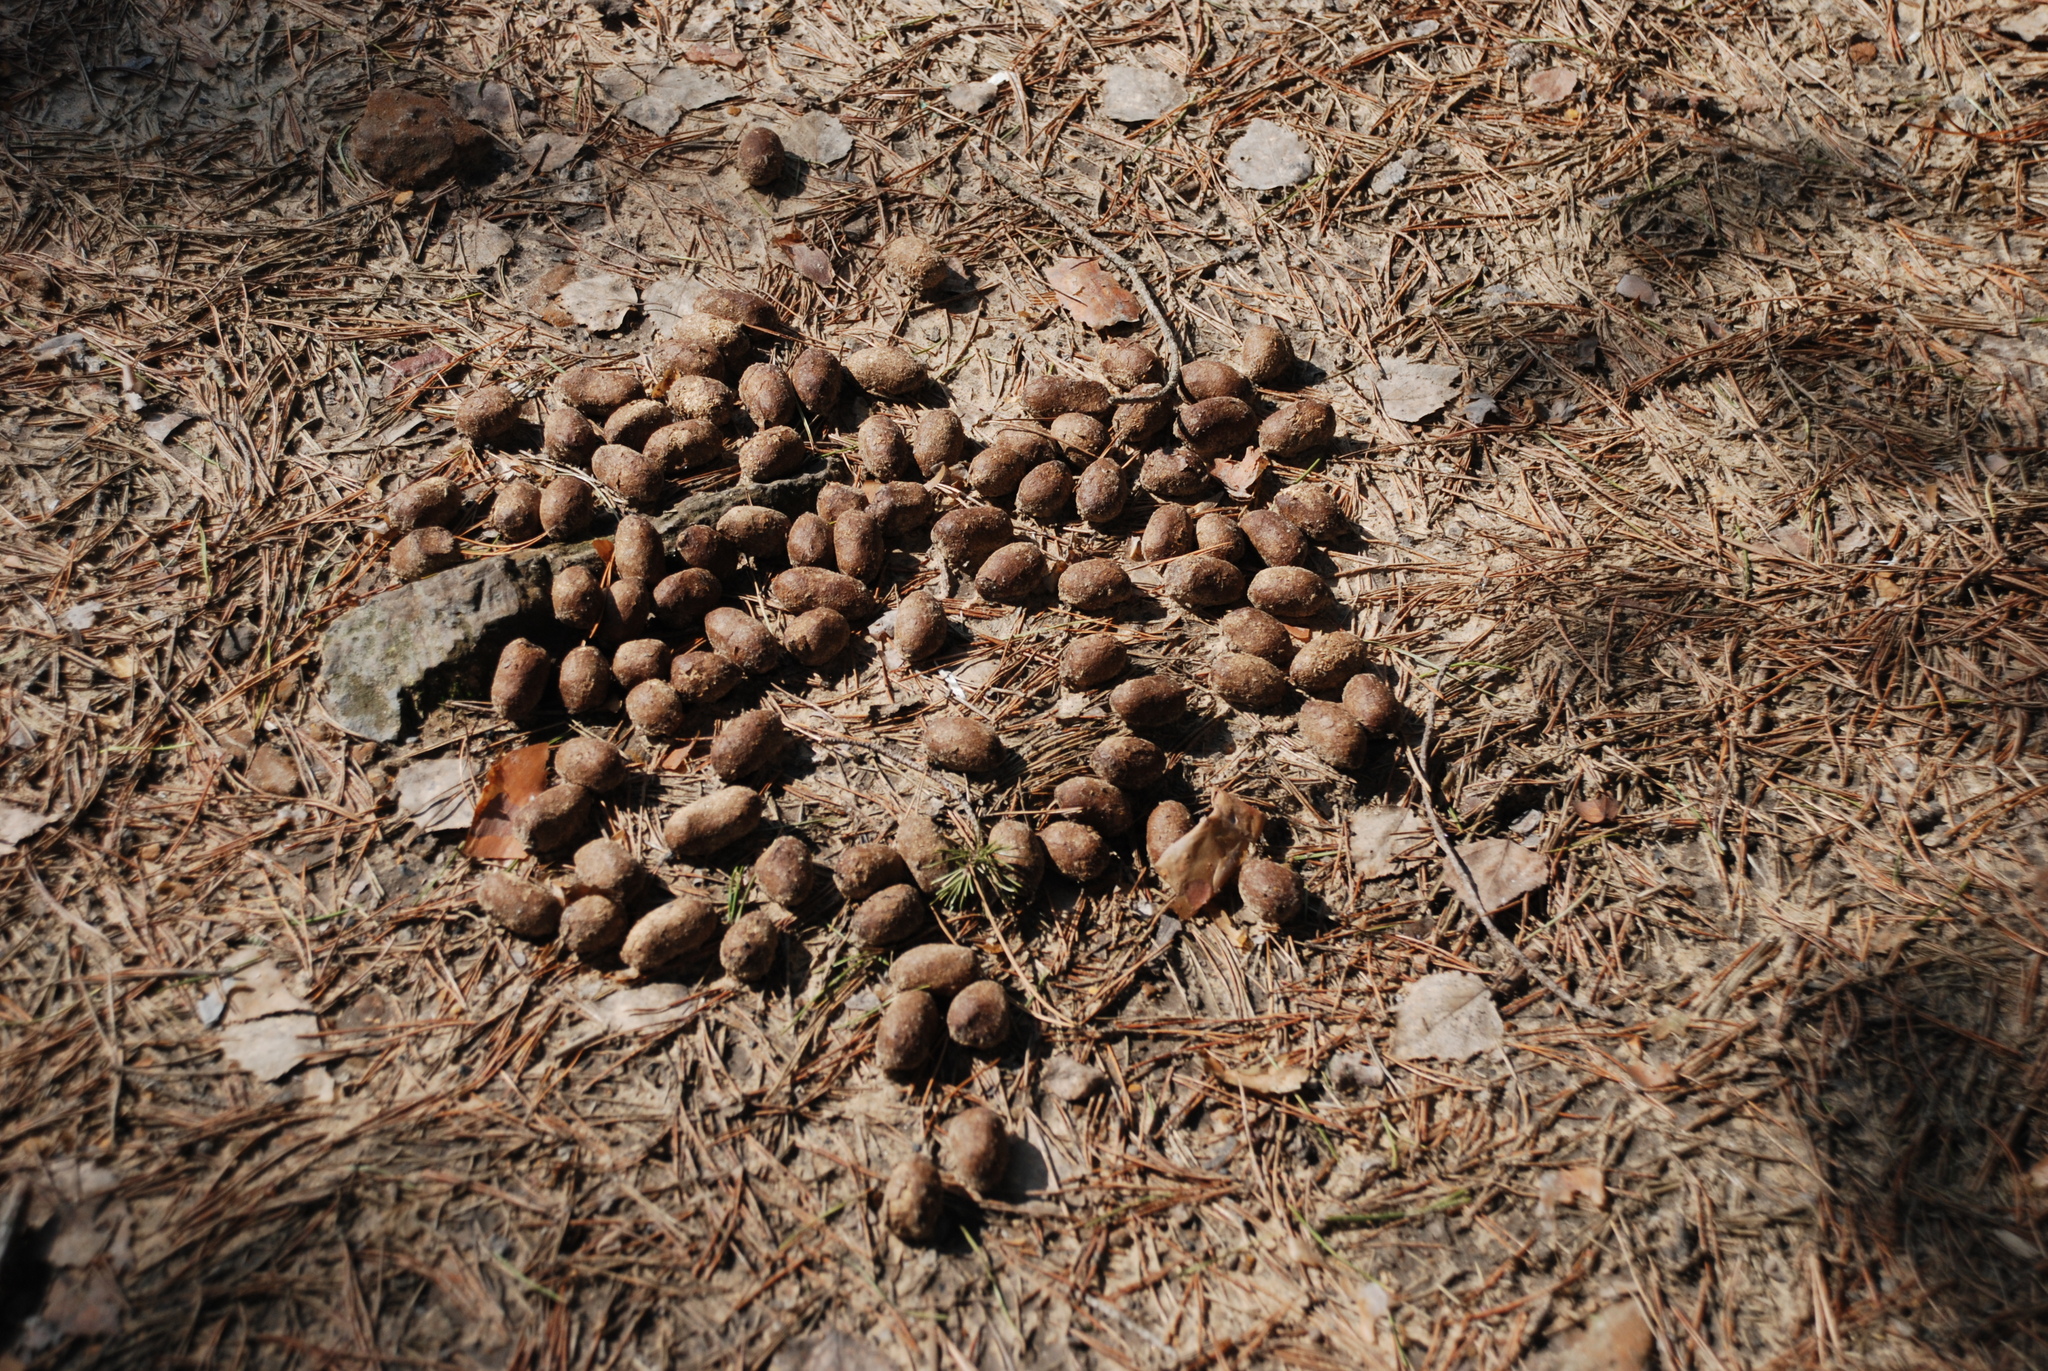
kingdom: Animalia
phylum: Chordata
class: Mammalia
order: Artiodactyla
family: Cervidae
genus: Alces
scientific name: Alces alces
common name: Moose
